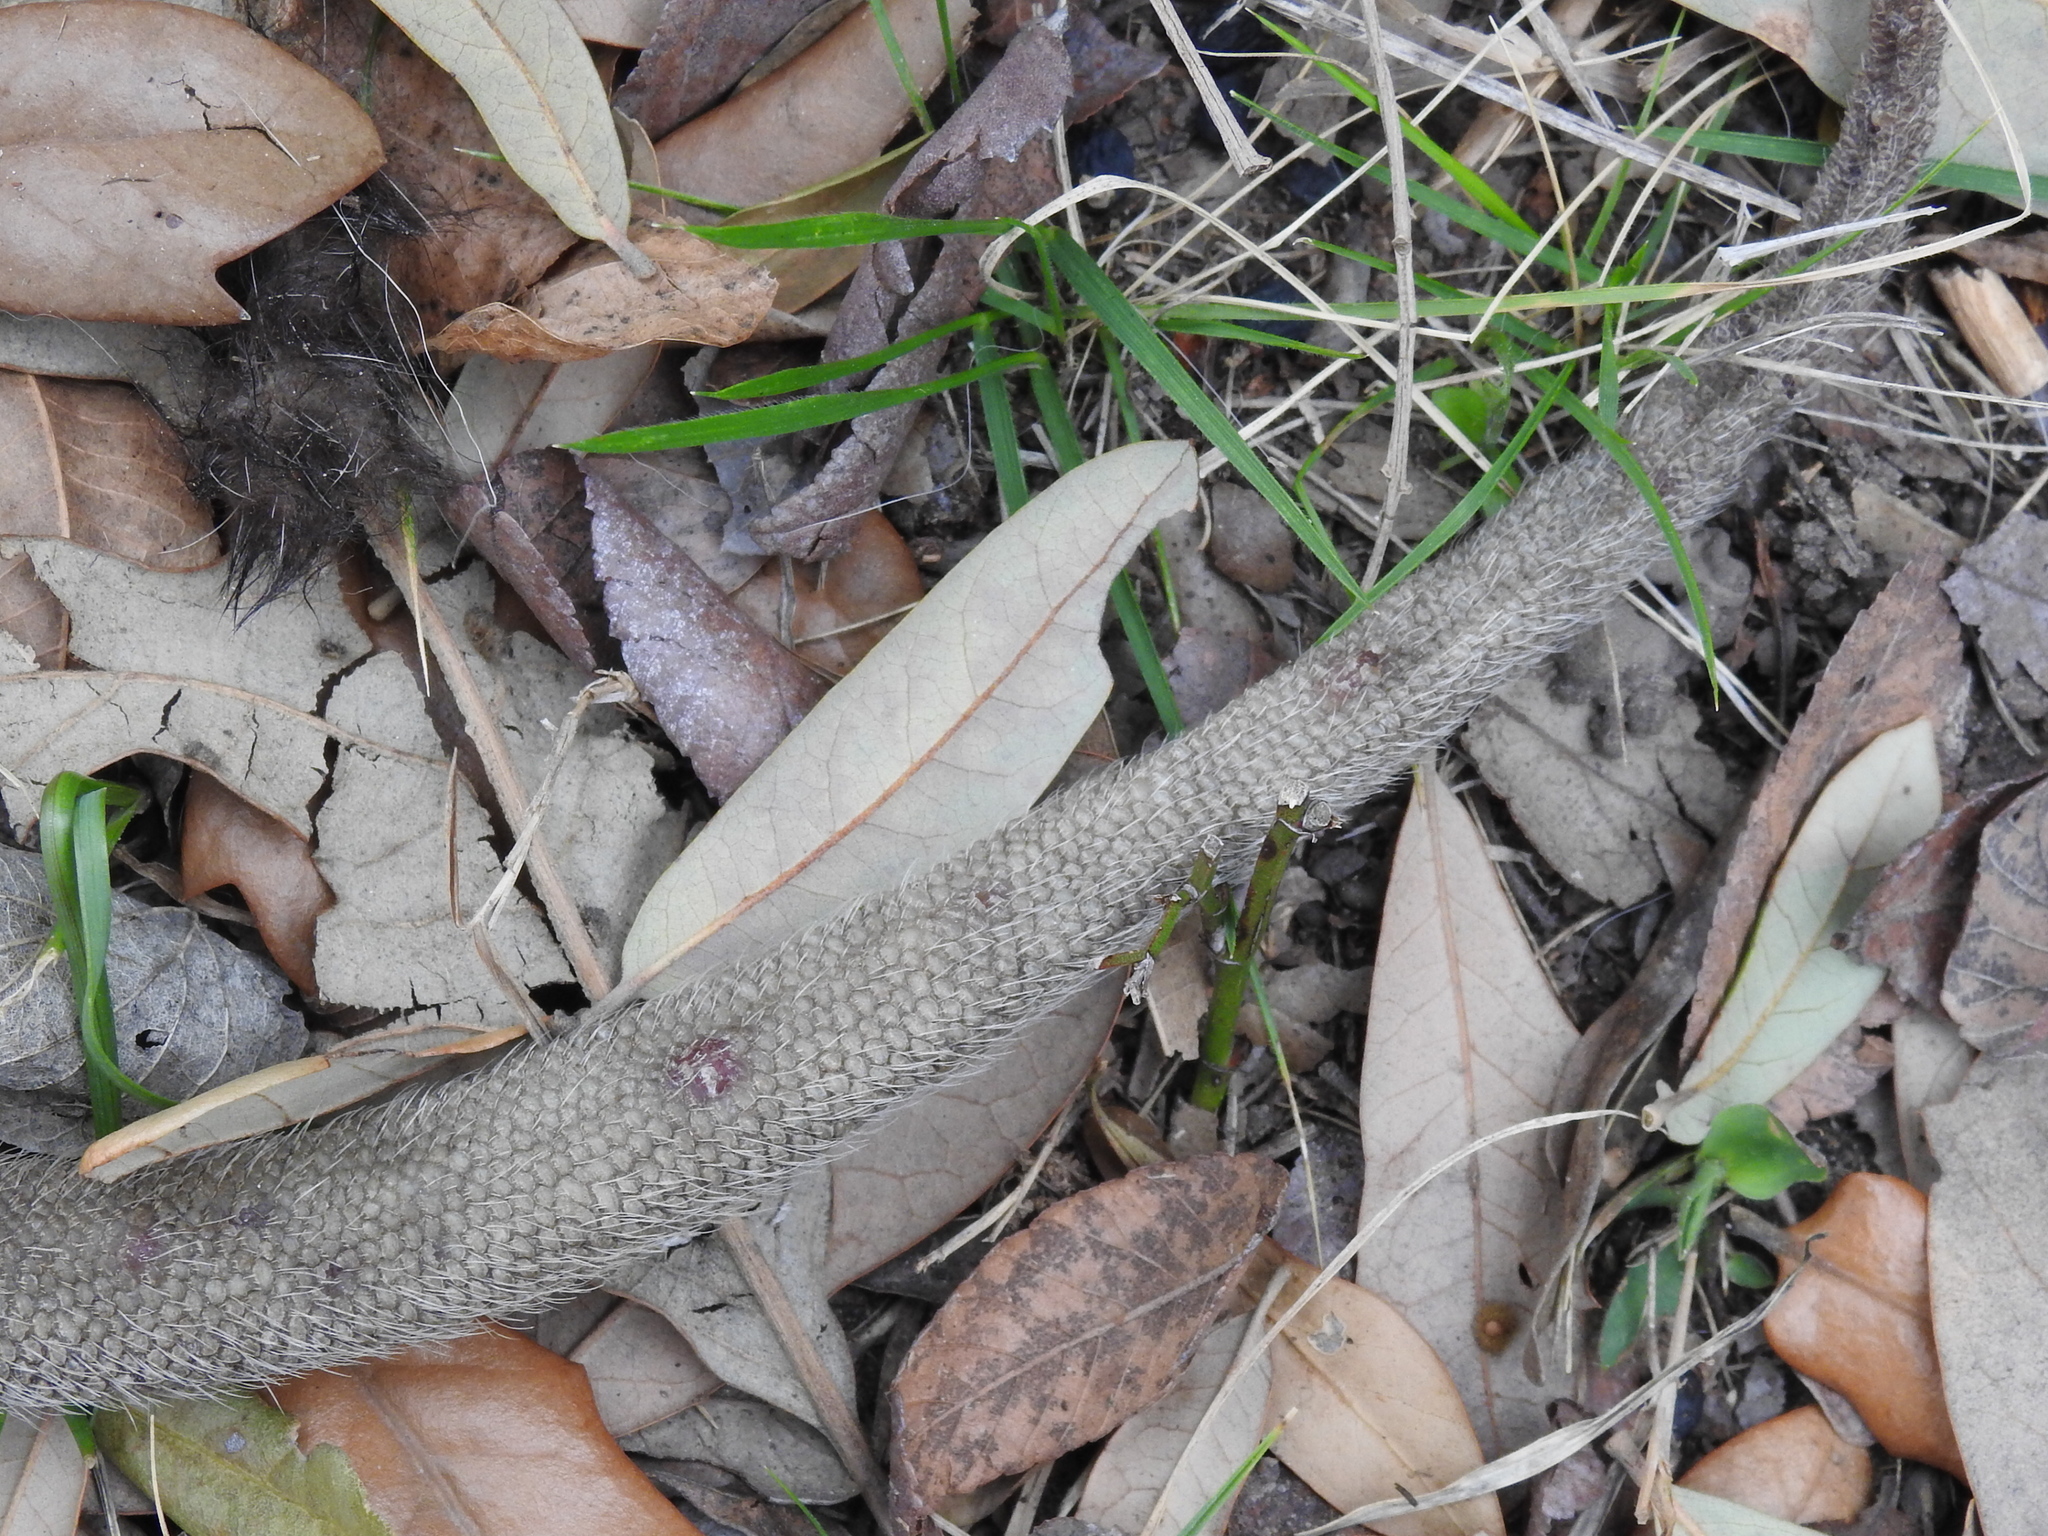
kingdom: Animalia
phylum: Chordata
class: Mammalia
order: Didelphimorphia
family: Didelphidae
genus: Didelphis
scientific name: Didelphis virginiana
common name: Virginia opossum
